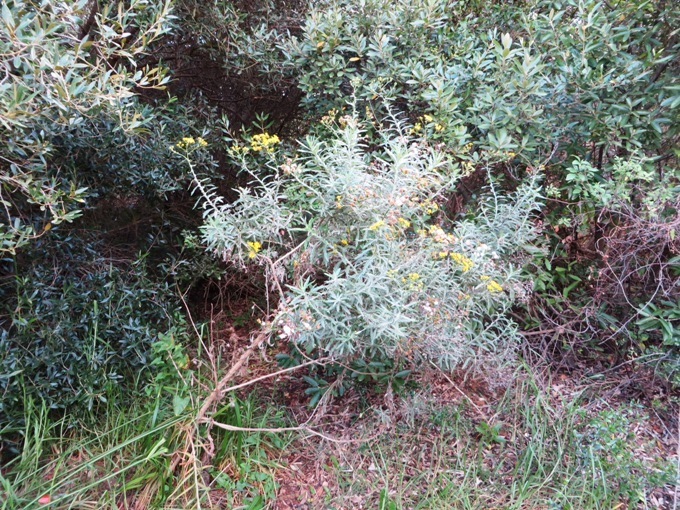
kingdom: Plantae
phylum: Tracheophyta
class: Magnoliopsida
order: Asterales
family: Asteraceae
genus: Senecio
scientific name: Senecio pterophorus
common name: Shoddy ragwort
